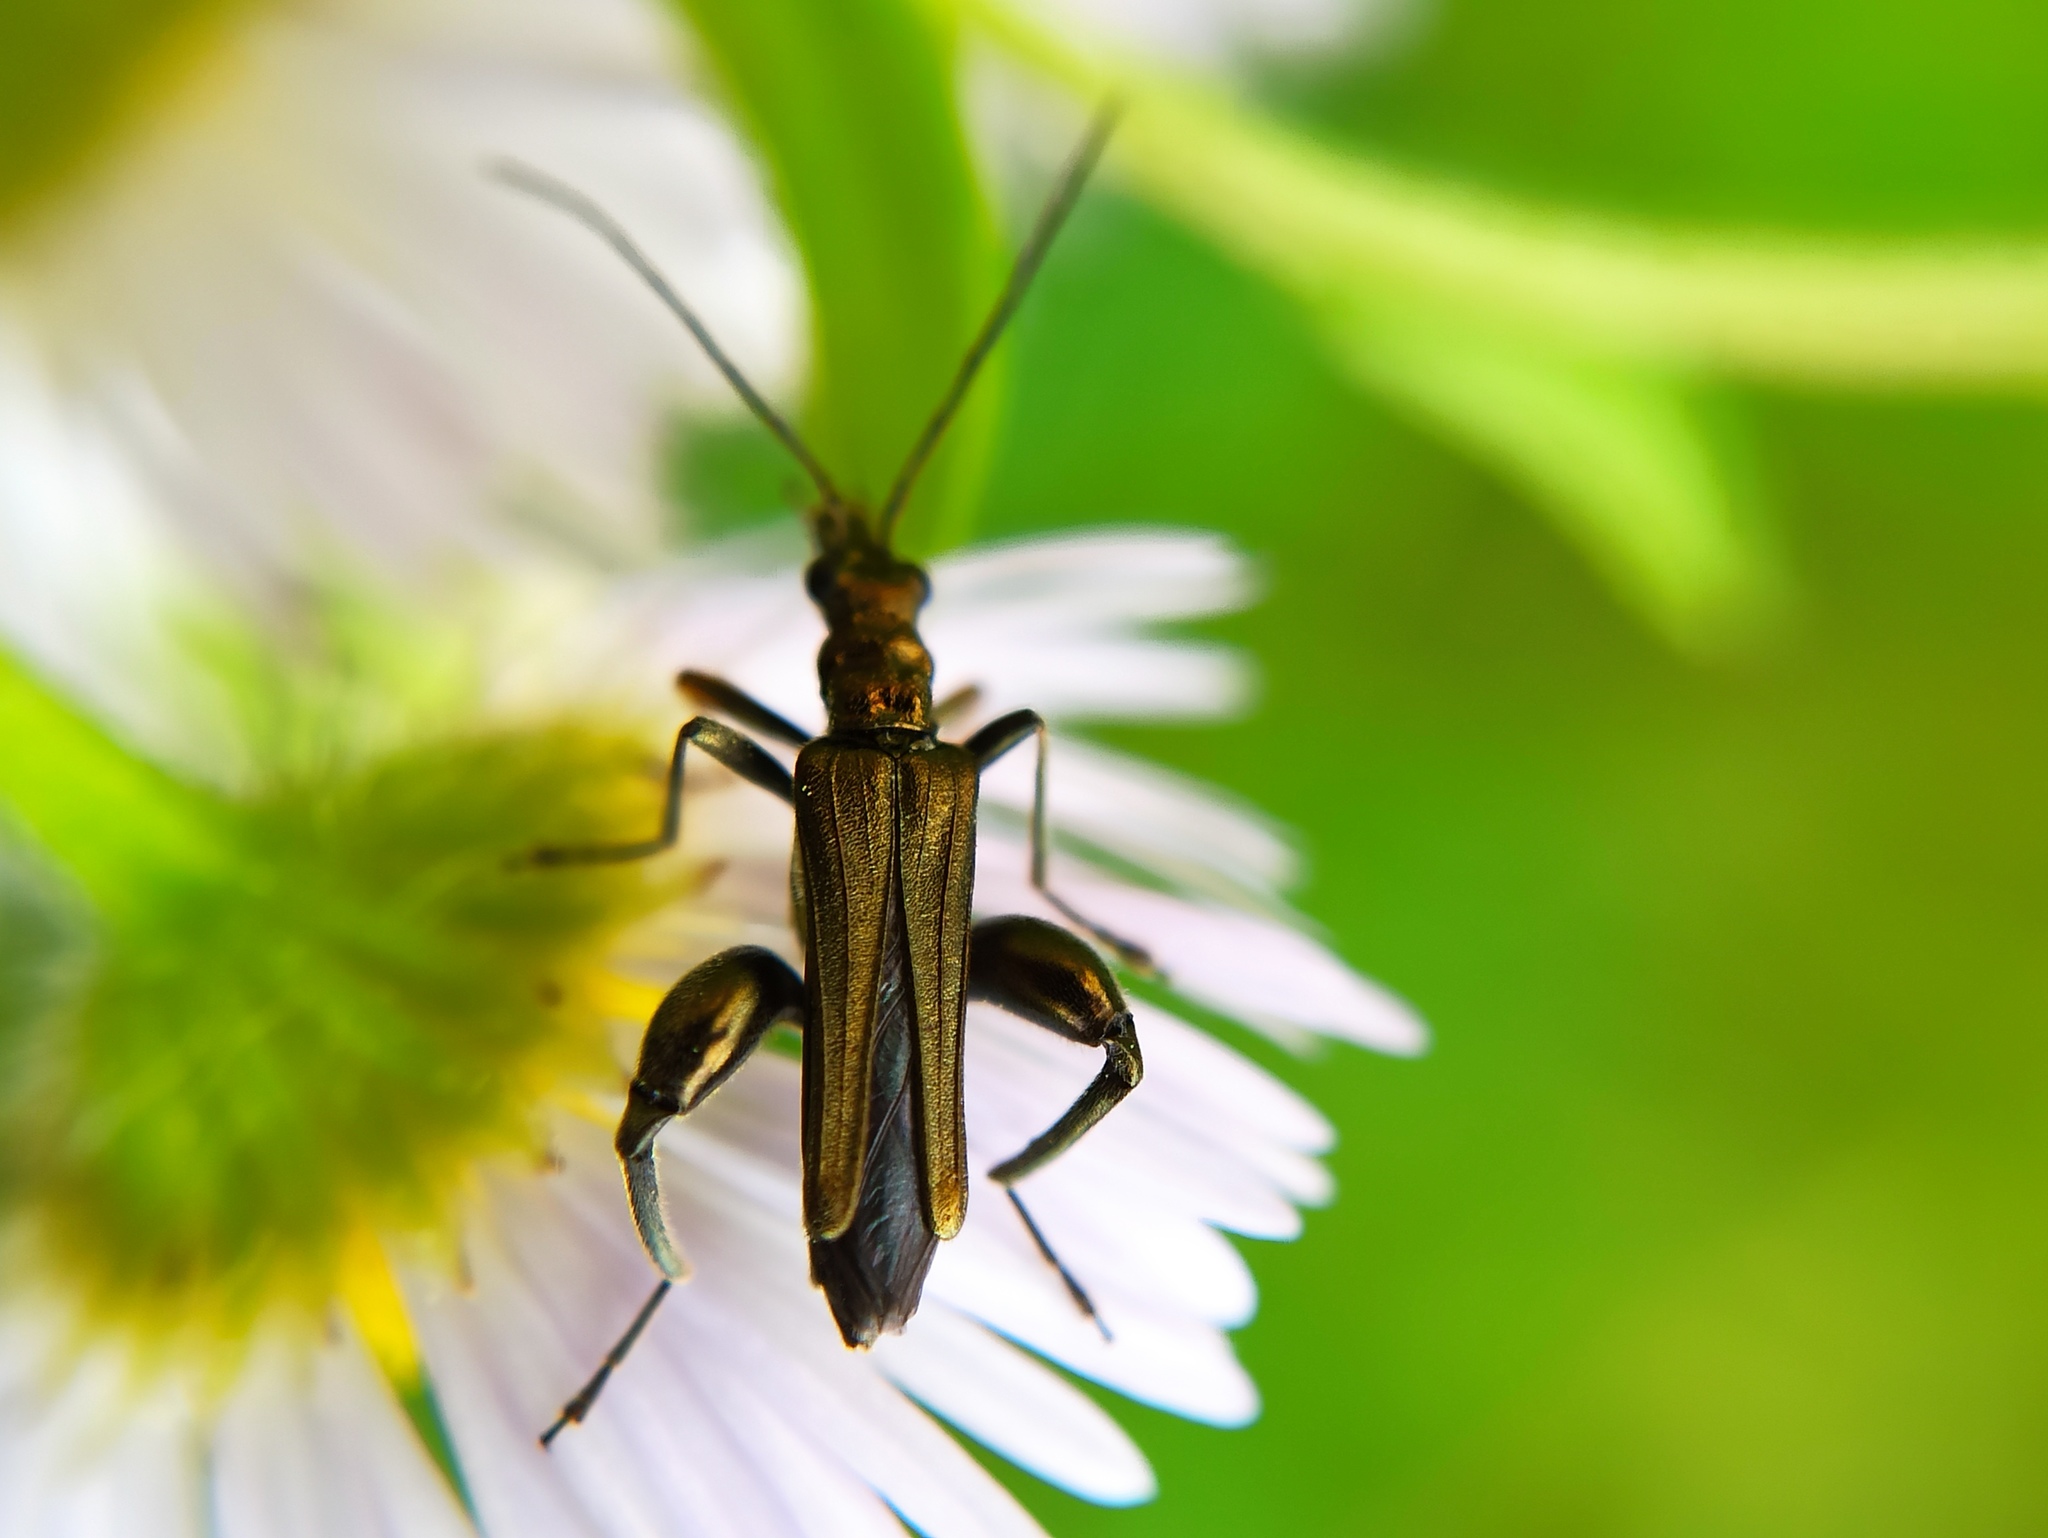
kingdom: Animalia
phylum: Arthropoda
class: Insecta
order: Coleoptera
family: Oedemeridae
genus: Oedemera
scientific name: Oedemera flavipes
